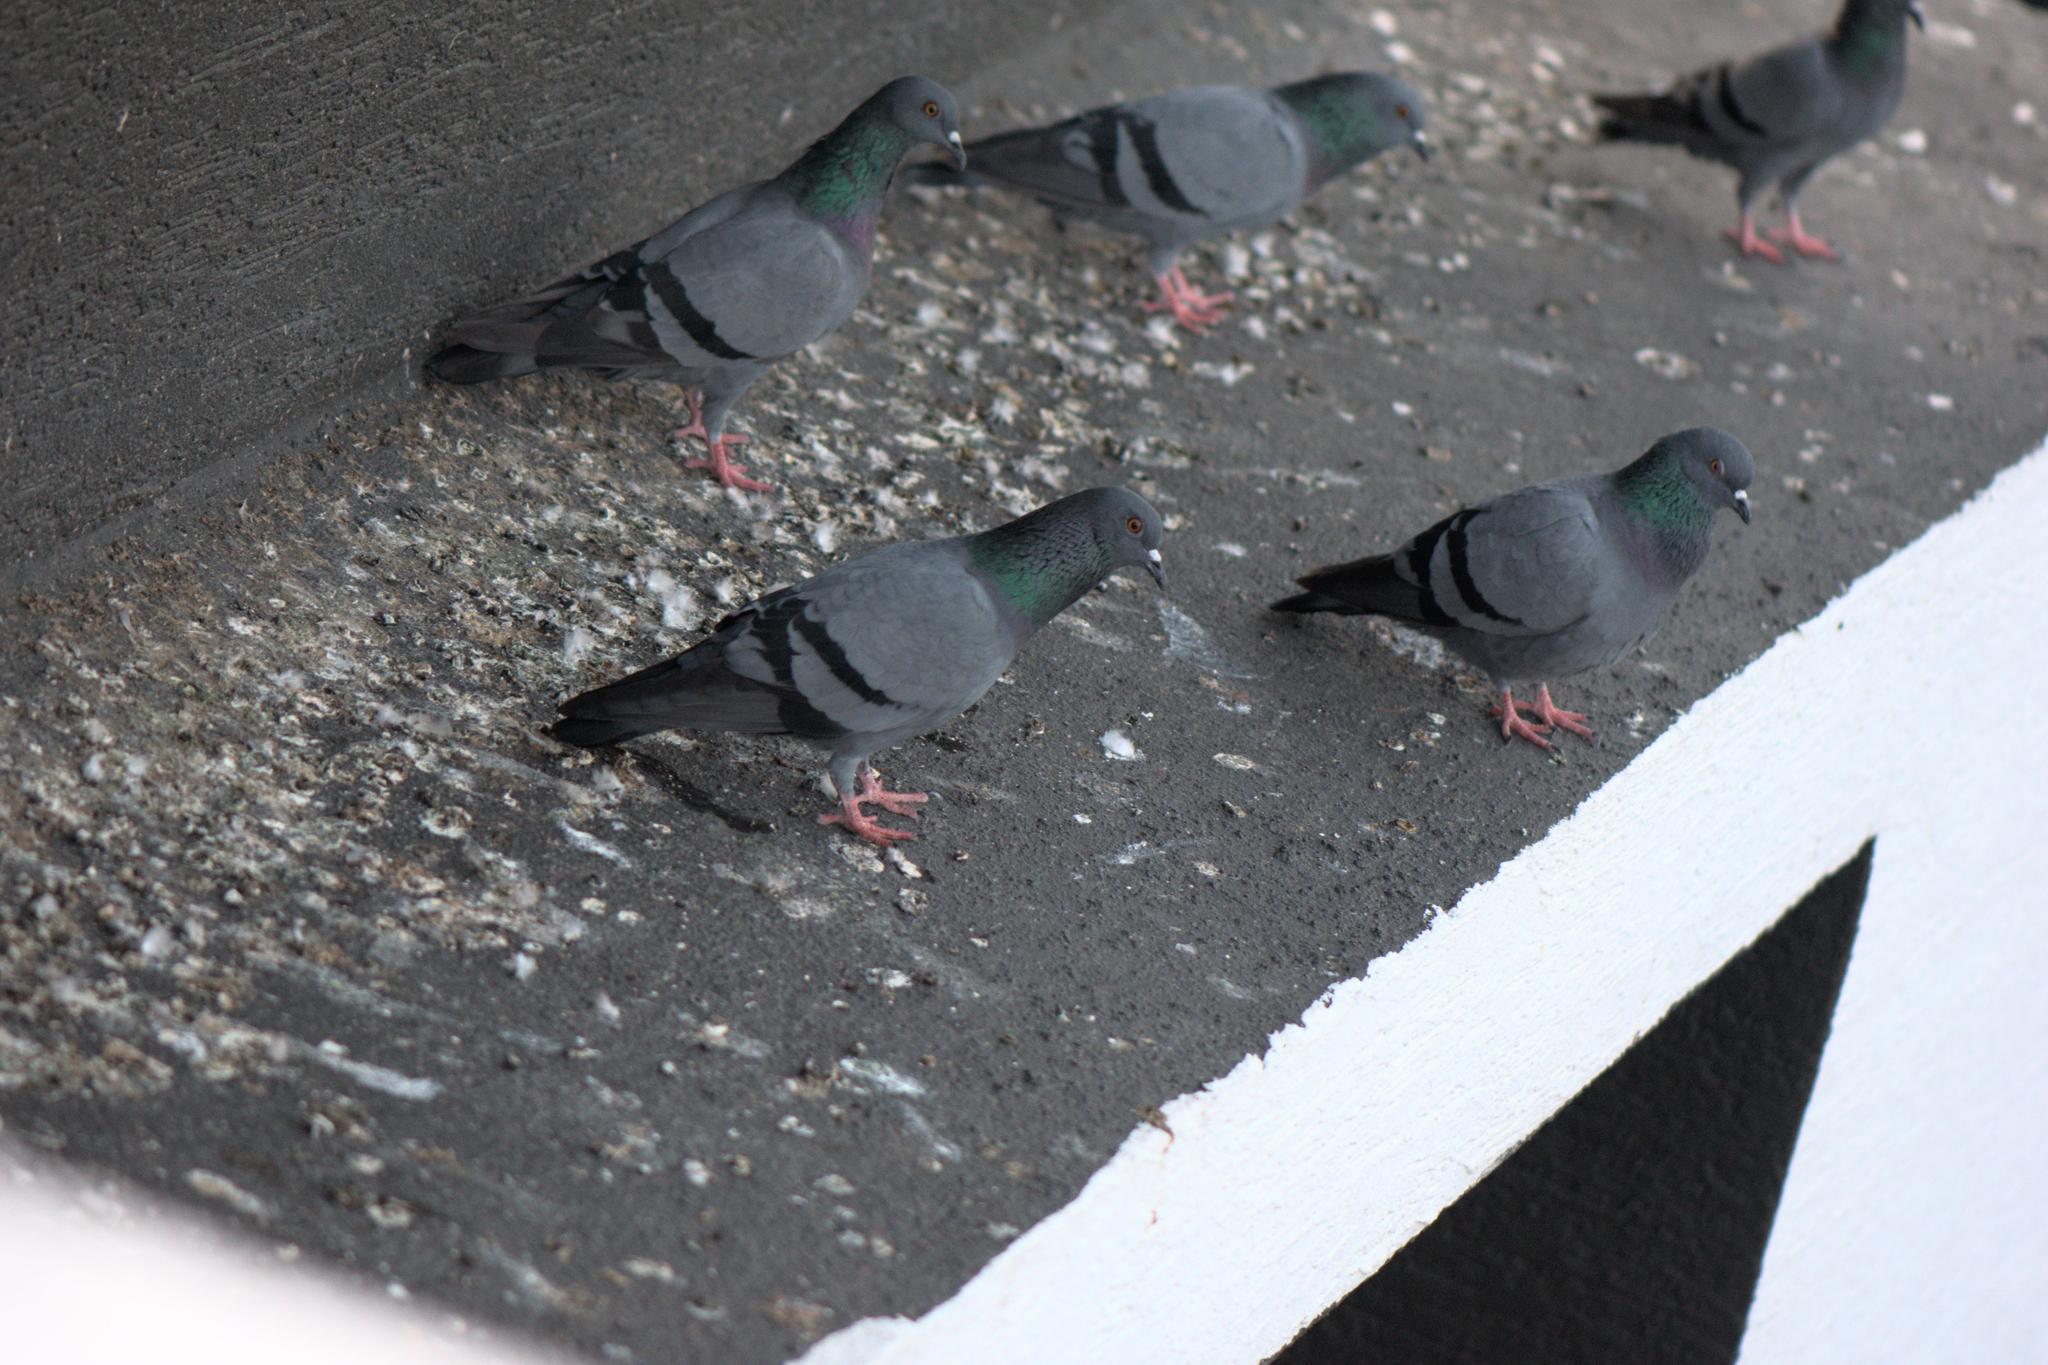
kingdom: Animalia
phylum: Chordata
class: Aves
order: Columbiformes
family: Columbidae
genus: Columba
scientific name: Columba livia
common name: Rock pigeon
